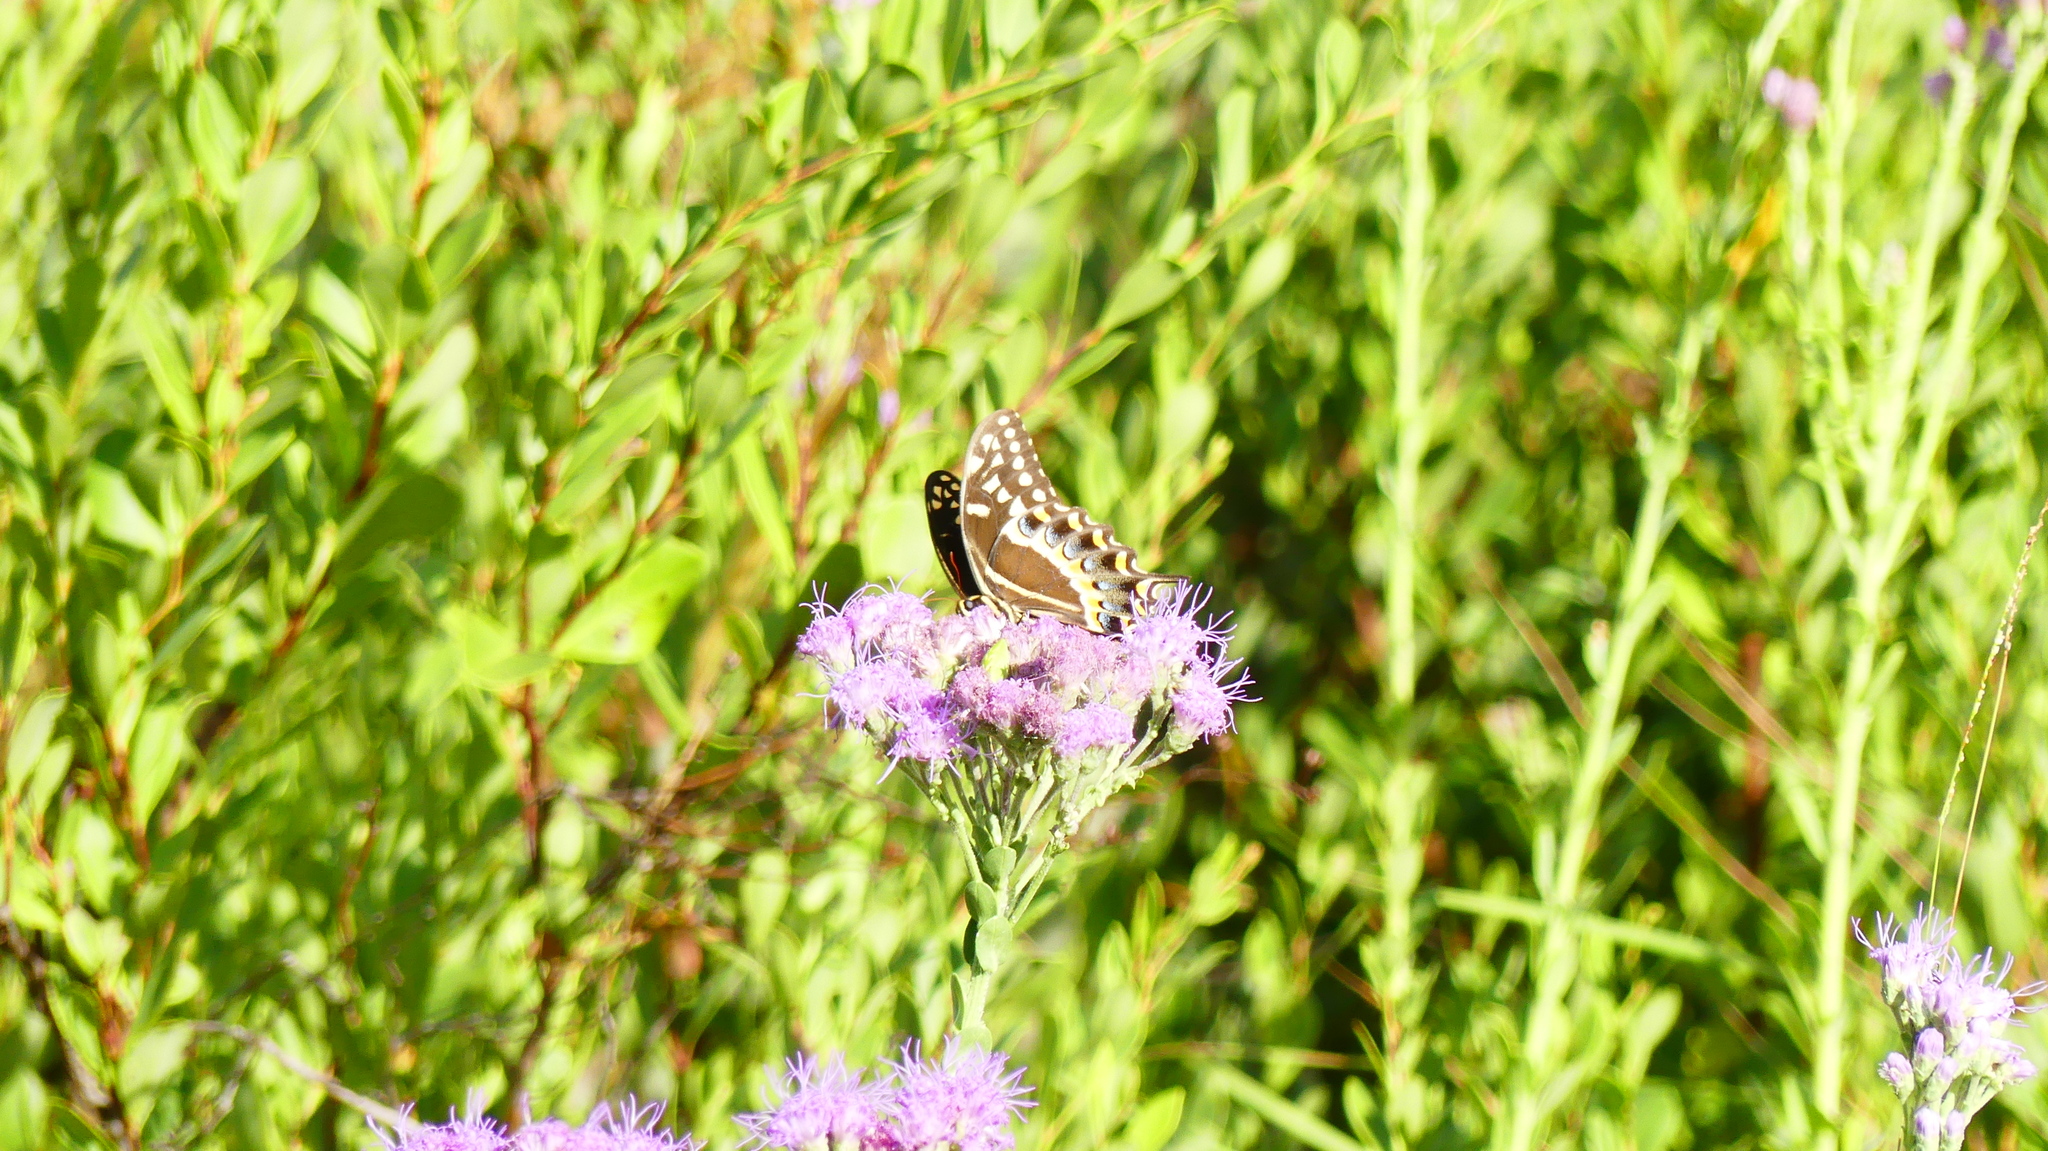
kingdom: Animalia
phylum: Arthropoda
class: Insecta
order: Lepidoptera
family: Papilionidae
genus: Papilio
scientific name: Papilio palamedes
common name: Palamedes swallowtail
